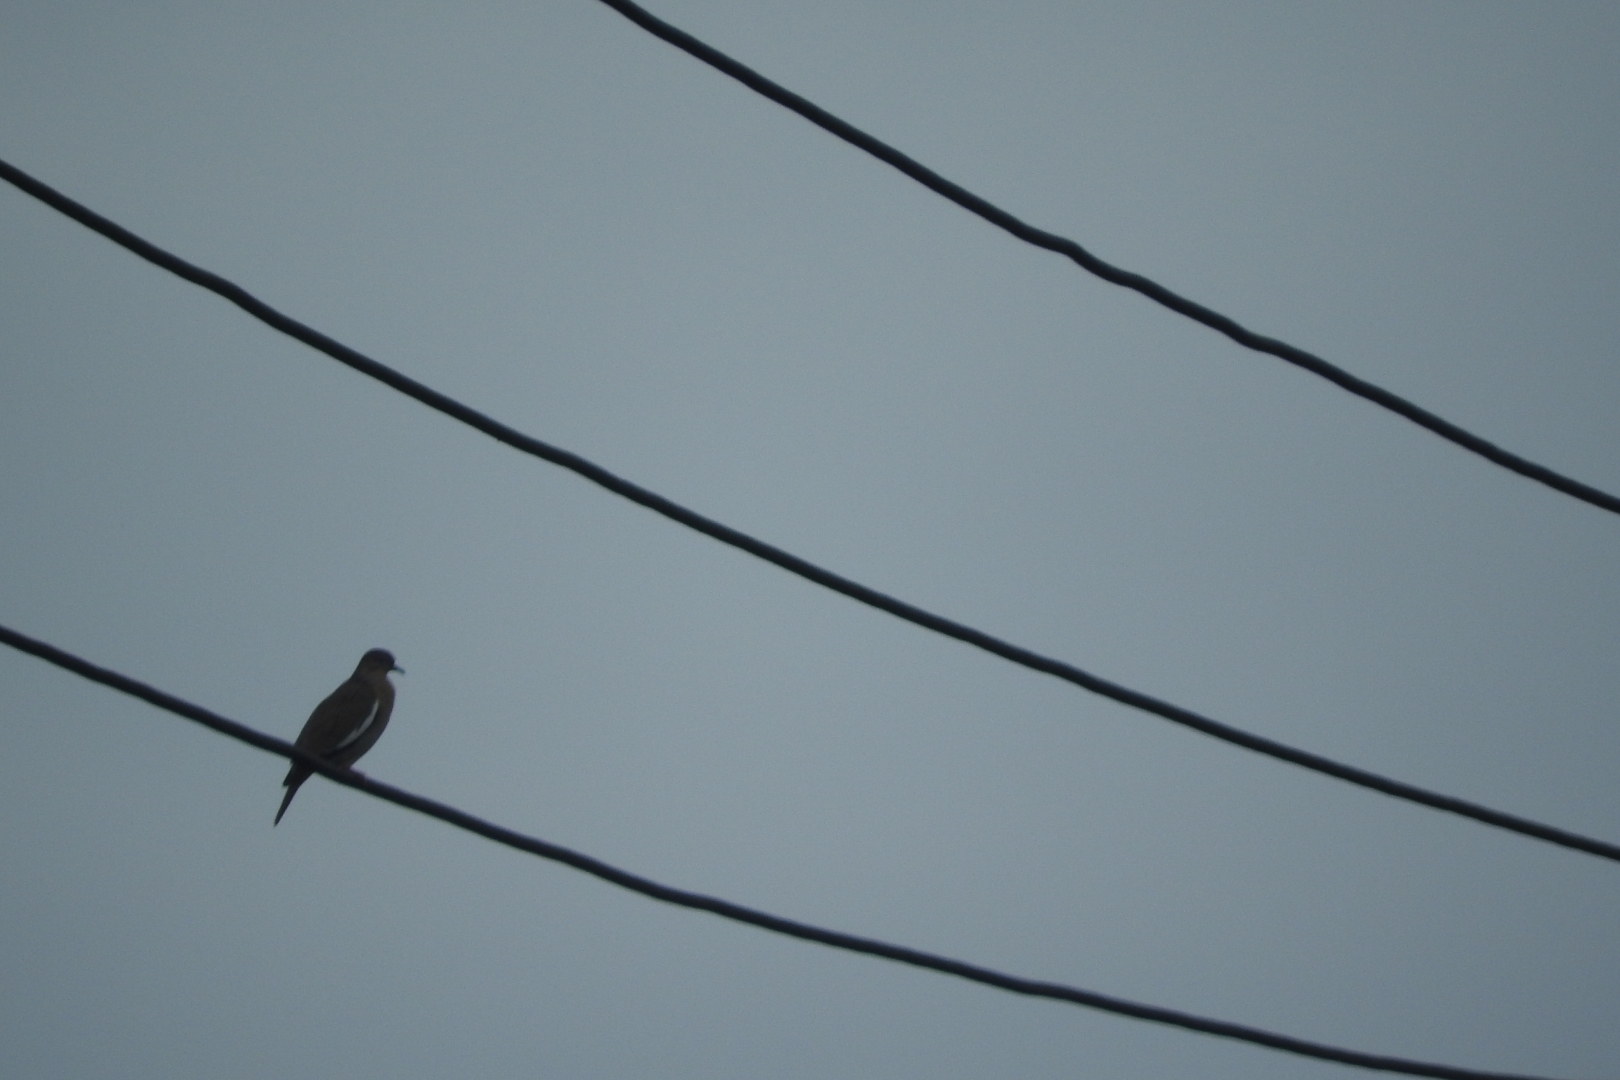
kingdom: Animalia
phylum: Chordata
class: Aves
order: Columbiformes
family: Columbidae
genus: Zenaida
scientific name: Zenaida asiatica
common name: White-winged dove
